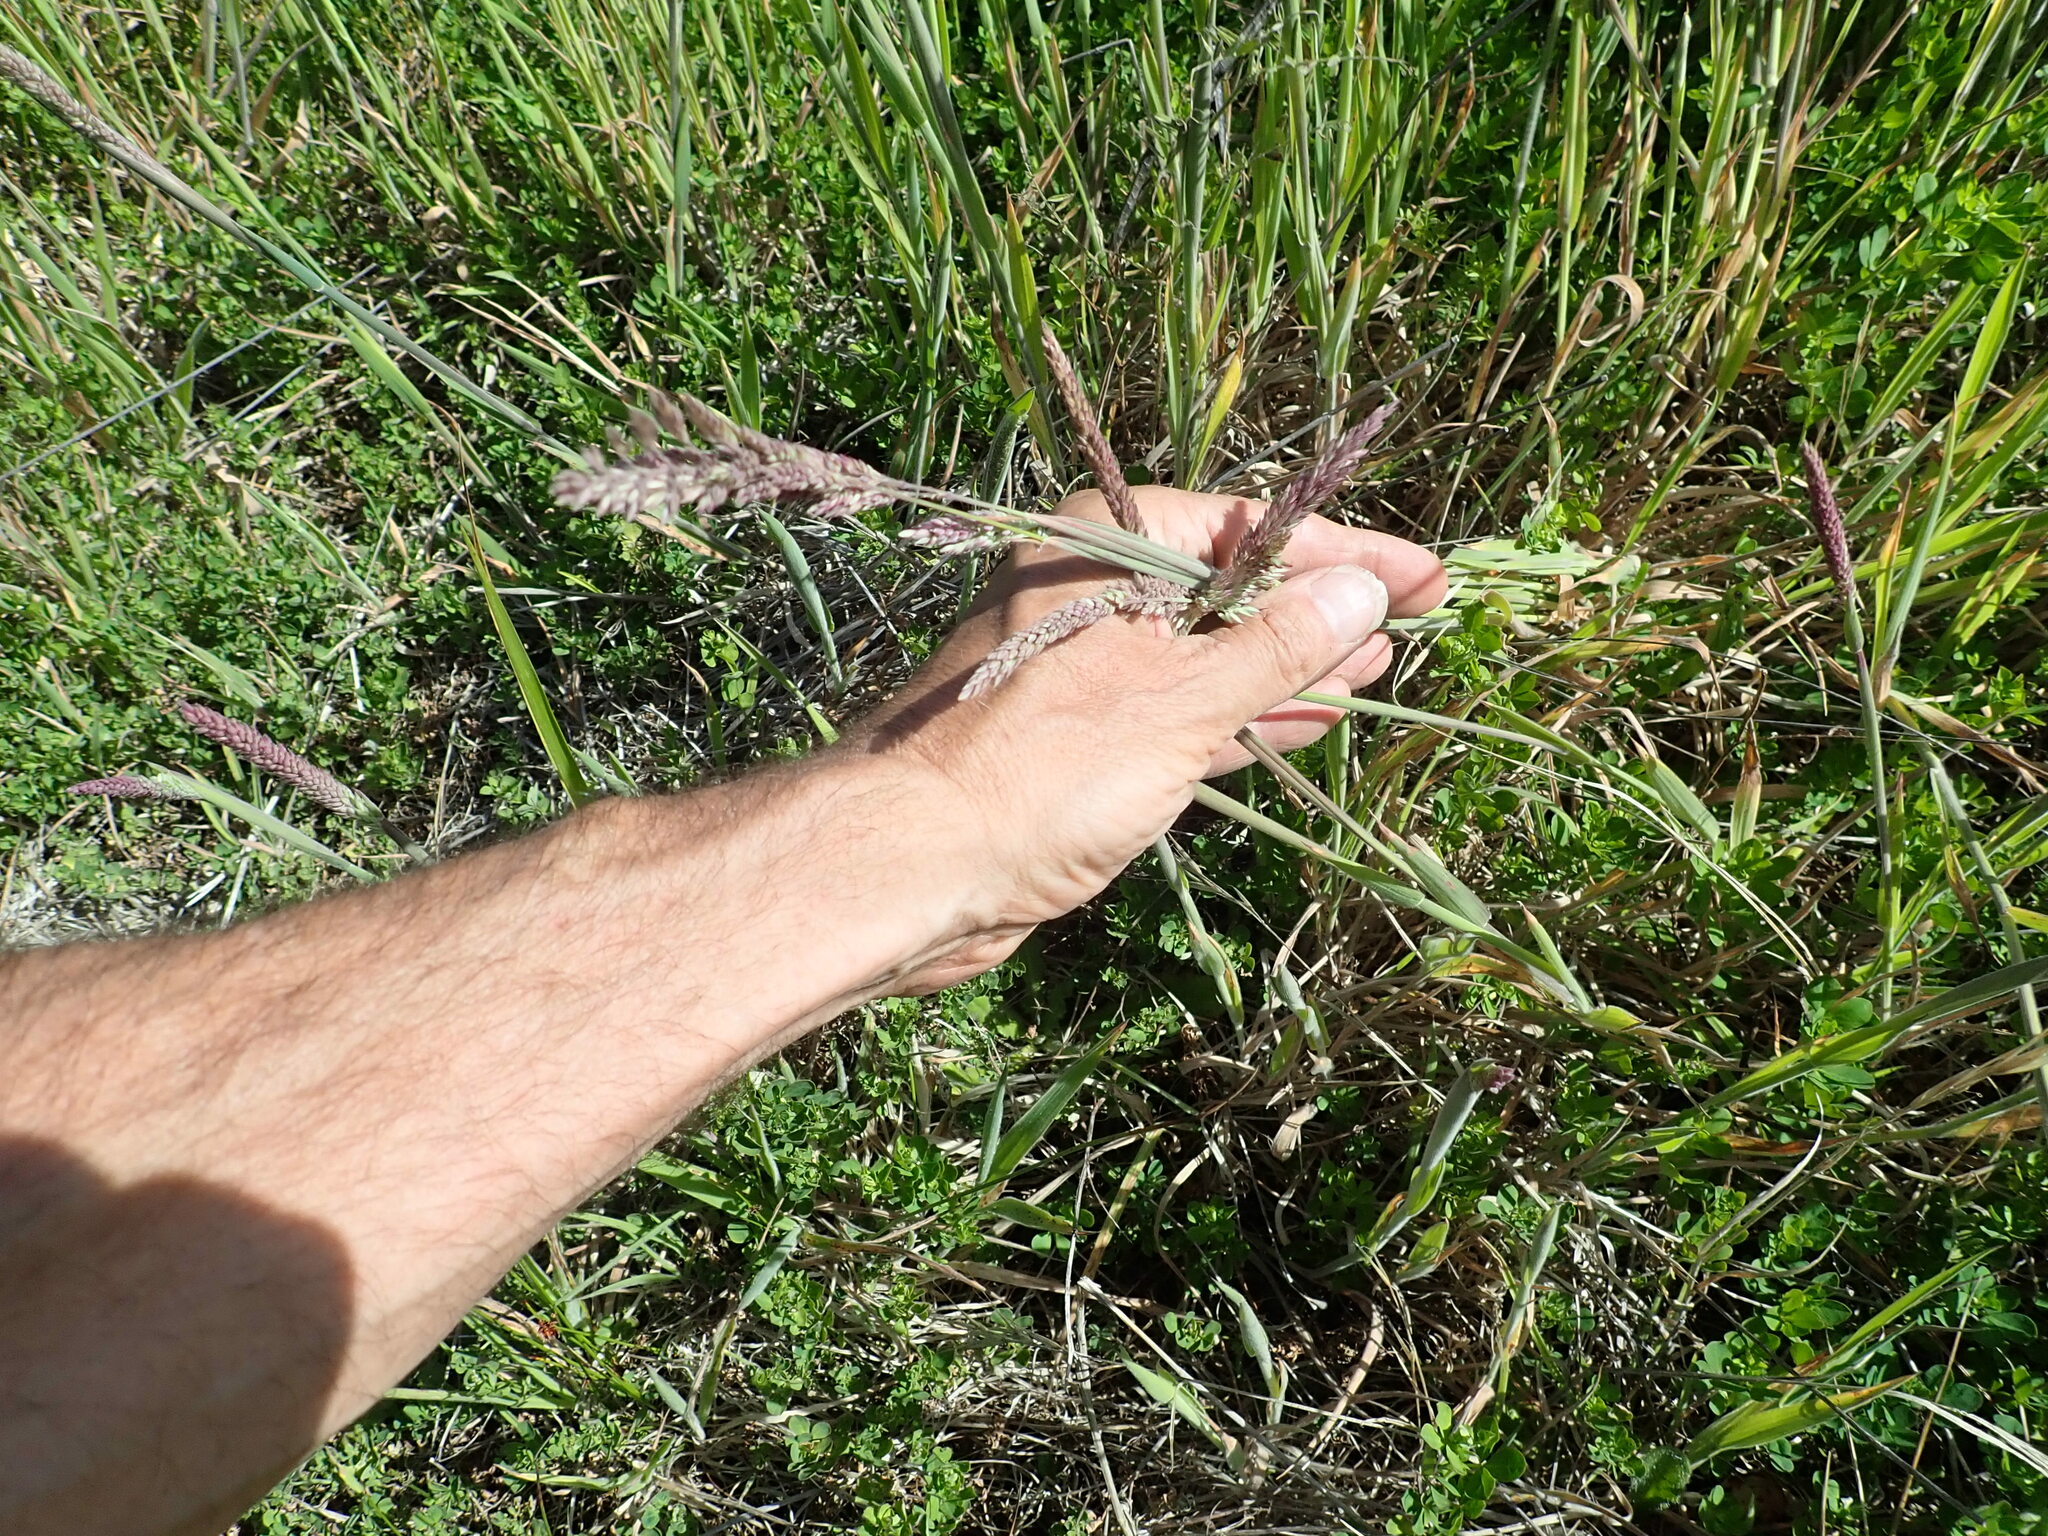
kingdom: Plantae
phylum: Tracheophyta
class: Liliopsida
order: Poales
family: Poaceae
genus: Holcus
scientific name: Holcus lanatus
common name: Yorkshire-fog
